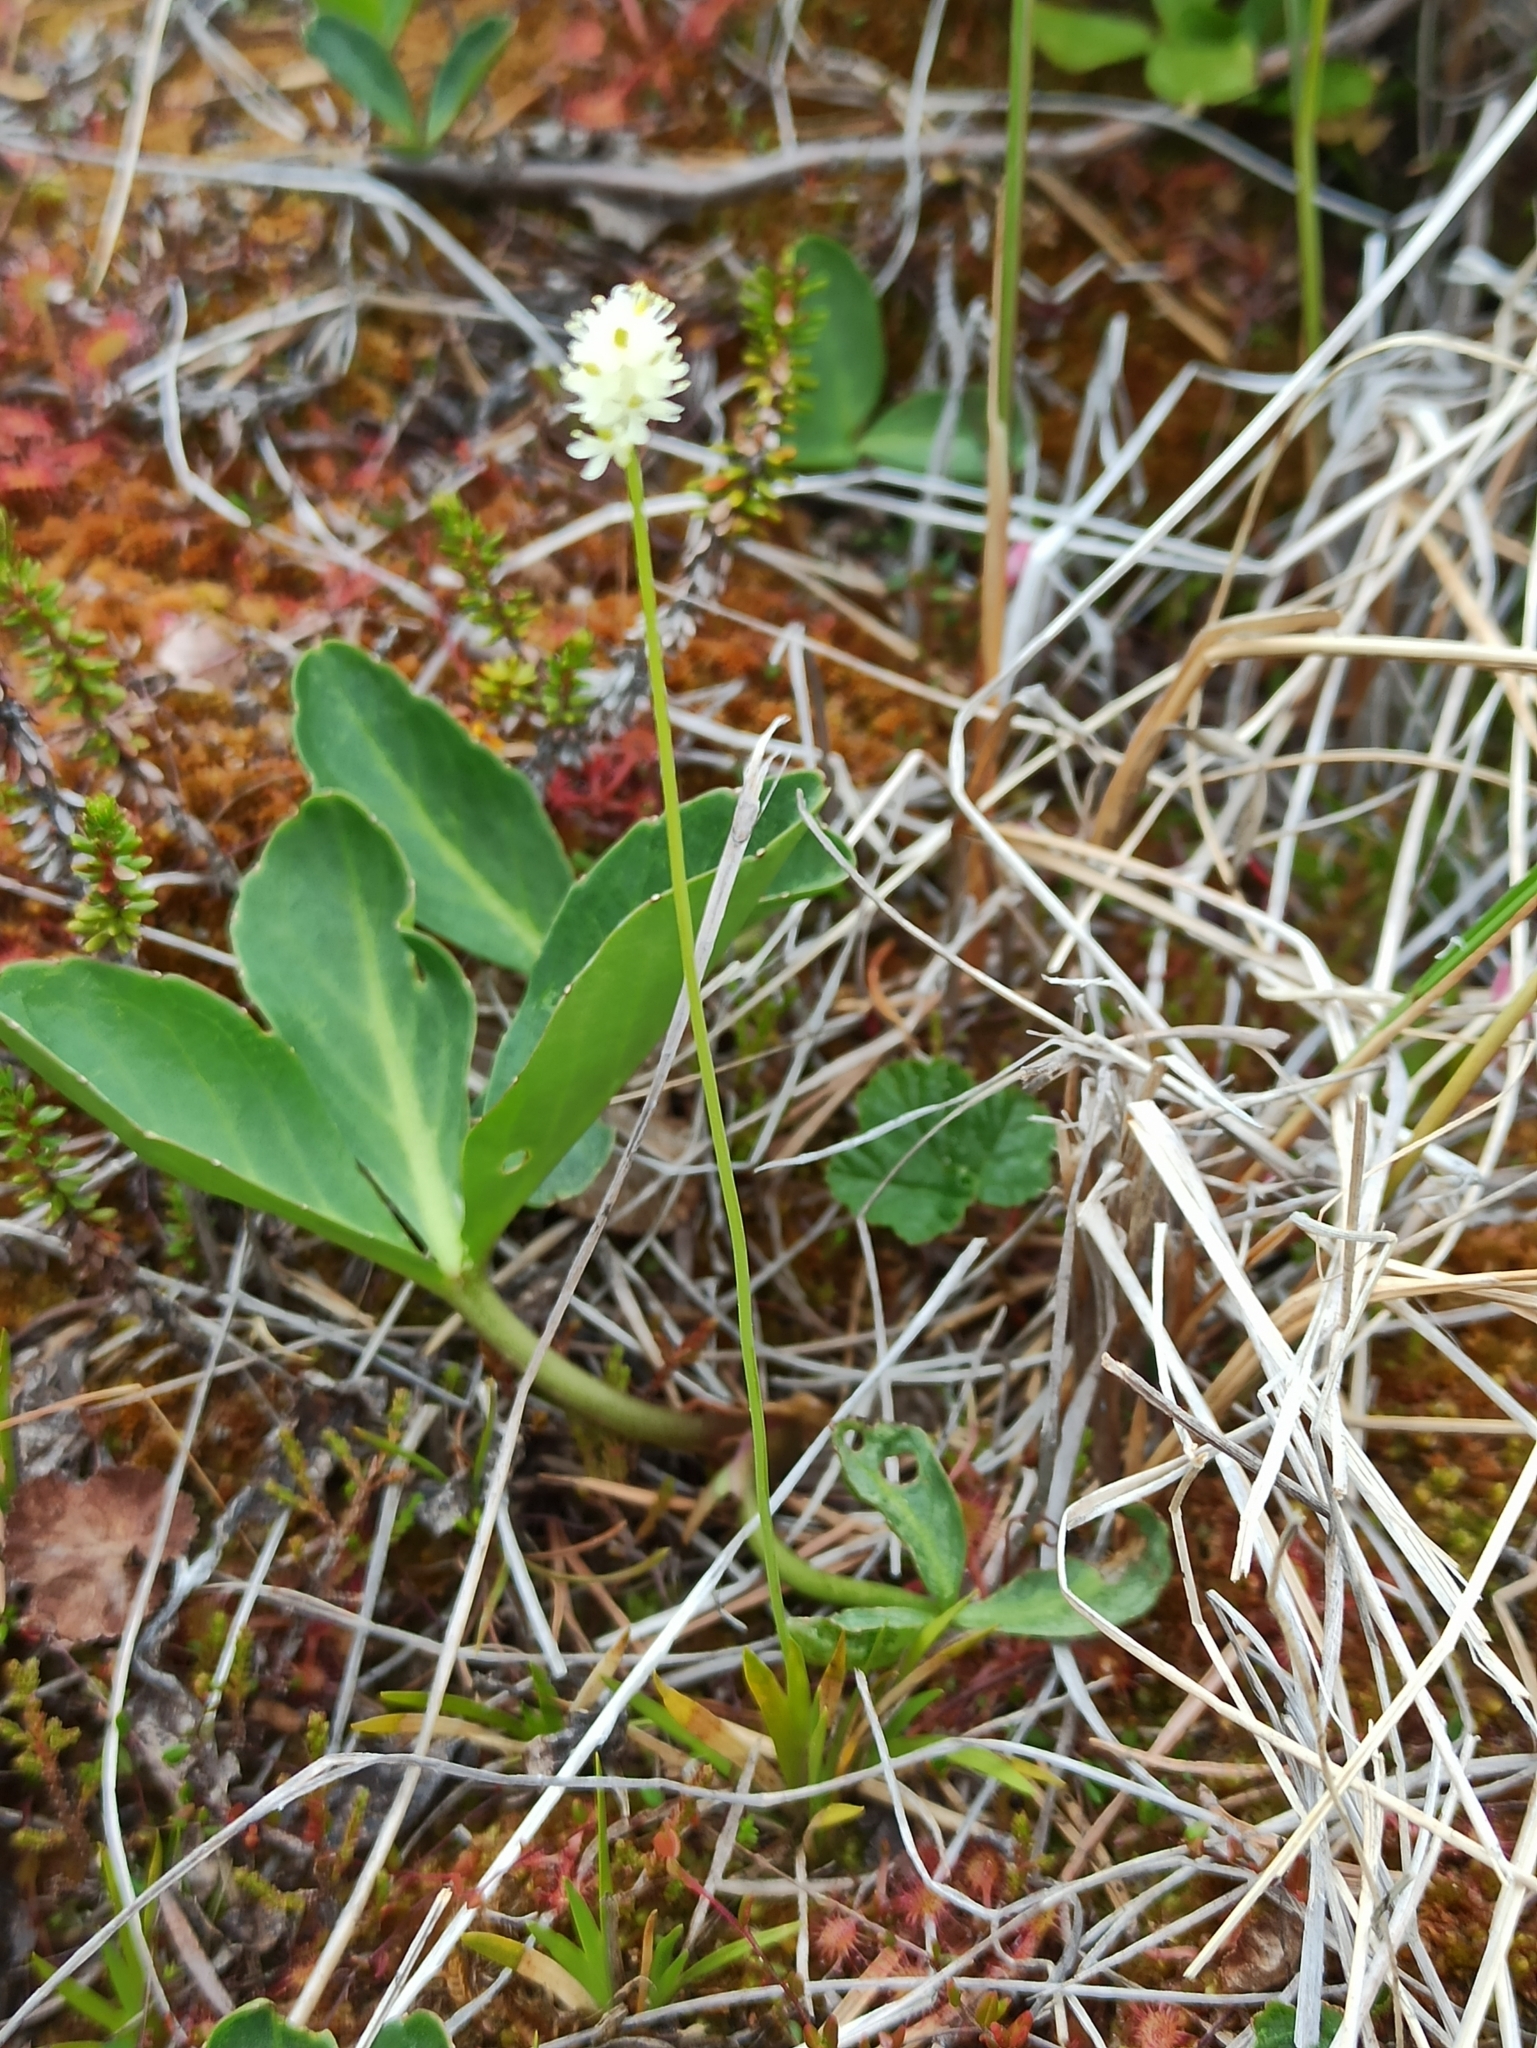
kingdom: Plantae
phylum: Tracheophyta
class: Liliopsida
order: Alismatales
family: Tofieldiaceae
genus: Tofieldia
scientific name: Tofieldia pusilla
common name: Scottish false asphodel
